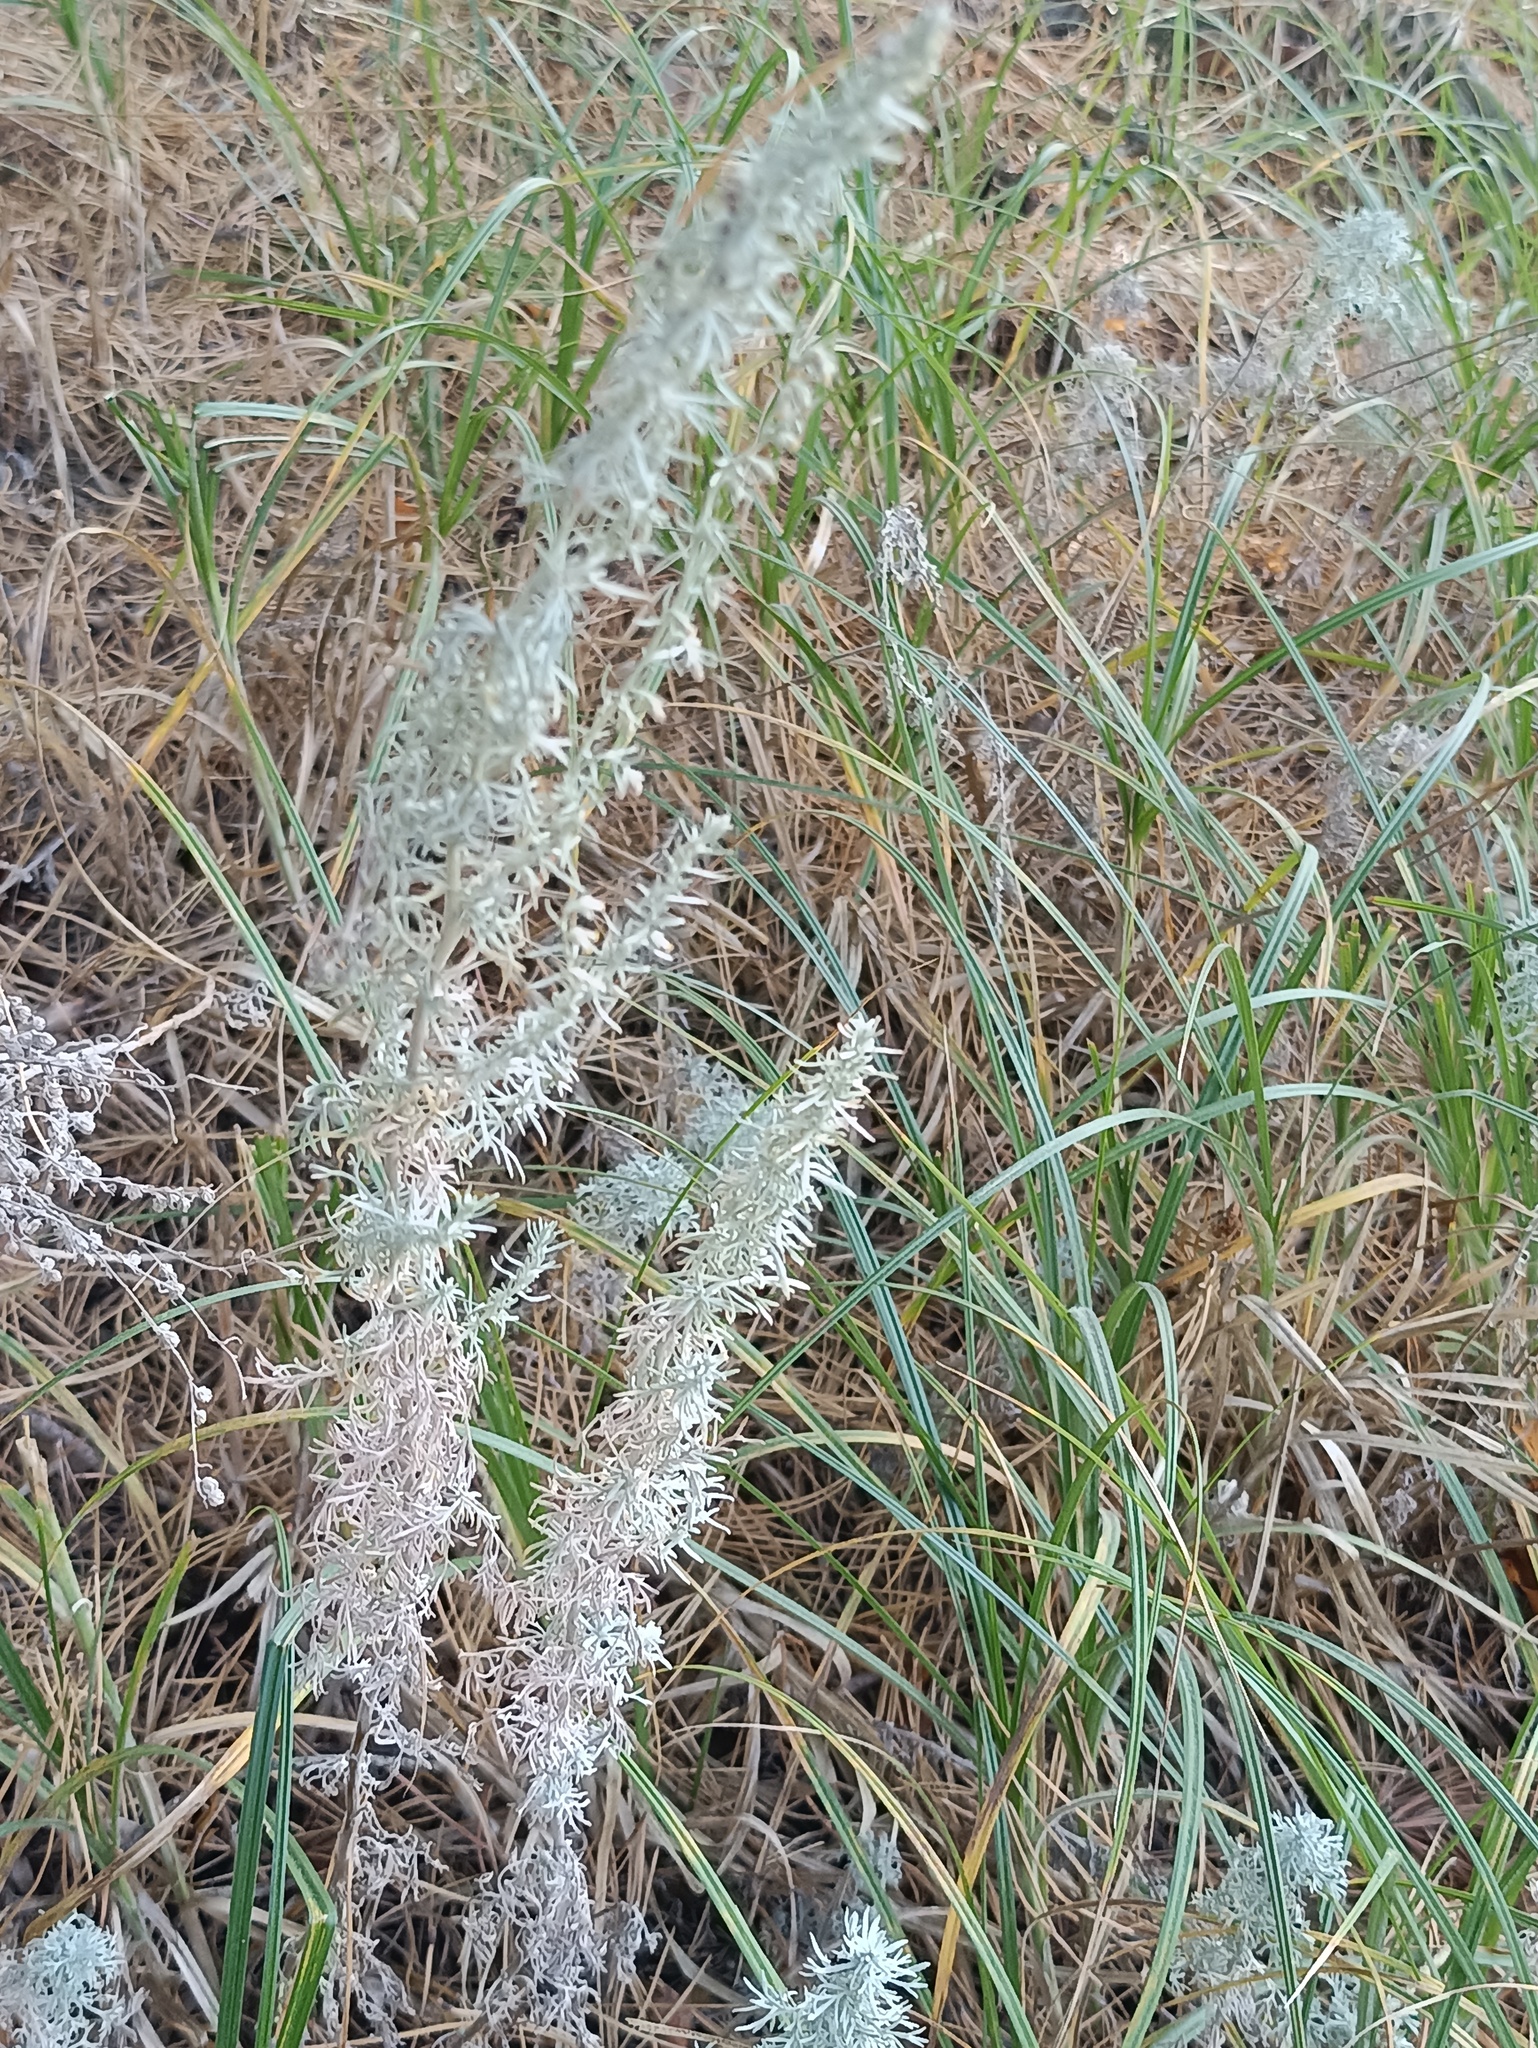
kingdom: Plantae
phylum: Tracheophyta
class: Magnoliopsida
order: Asterales
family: Asteraceae
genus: Artemisia
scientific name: Artemisia austriaca
